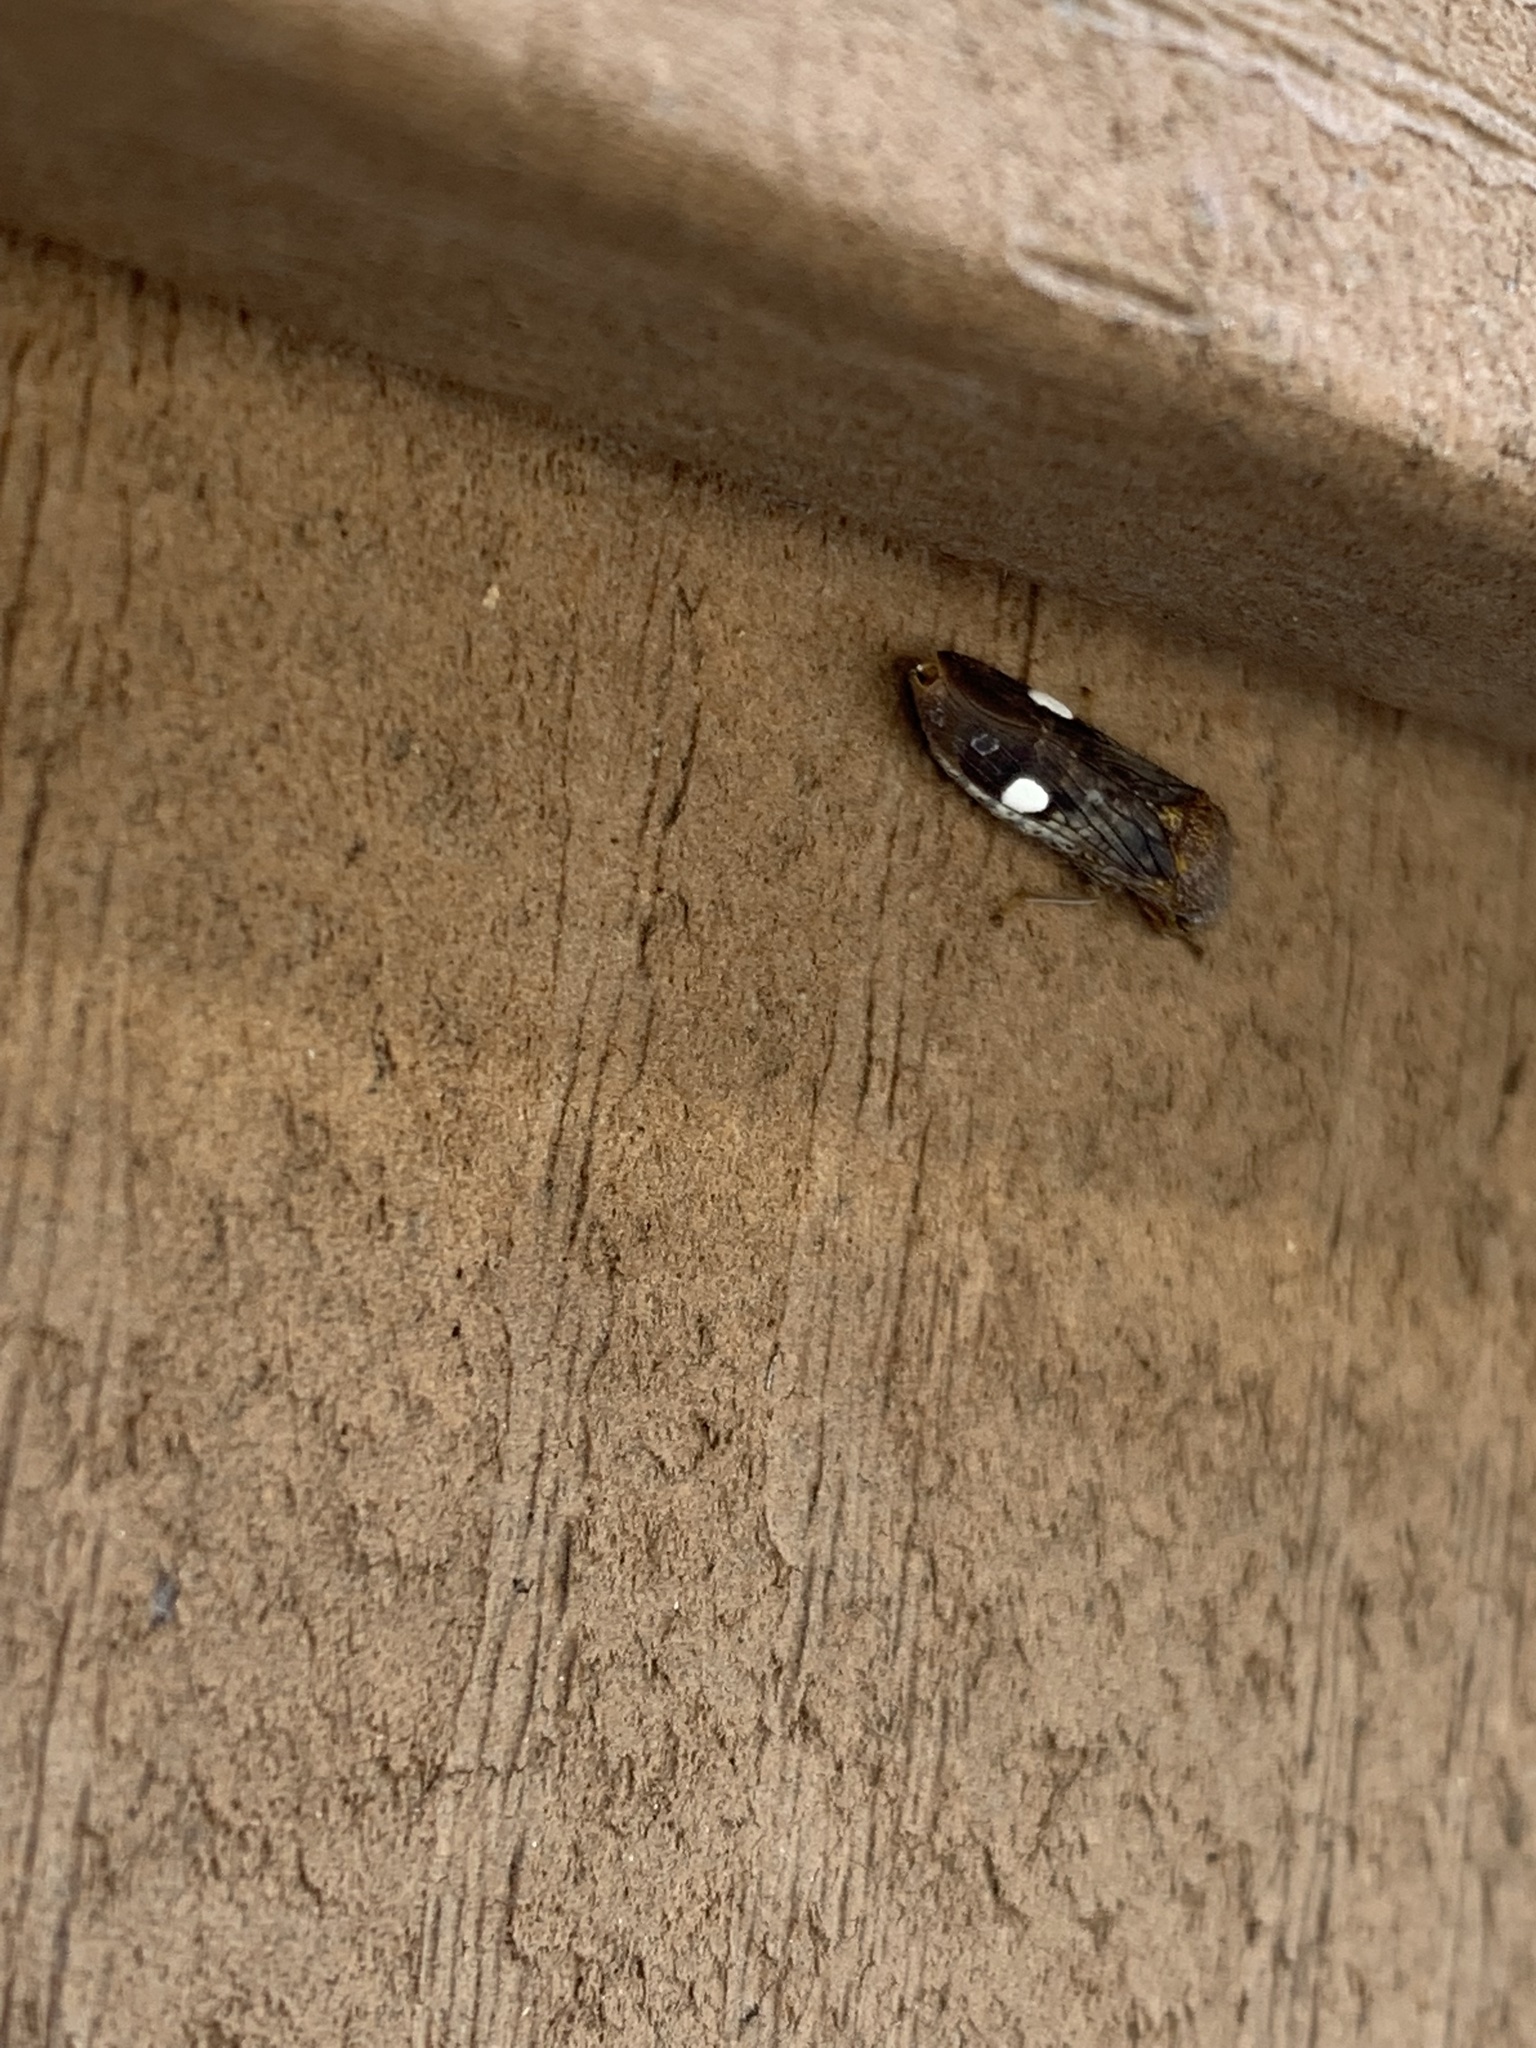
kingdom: Animalia
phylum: Arthropoda
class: Insecta
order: Hemiptera
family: Cicadellidae
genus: Homalodisca
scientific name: Homalodisca vitripennis
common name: Glassy-winged sharpshooter
